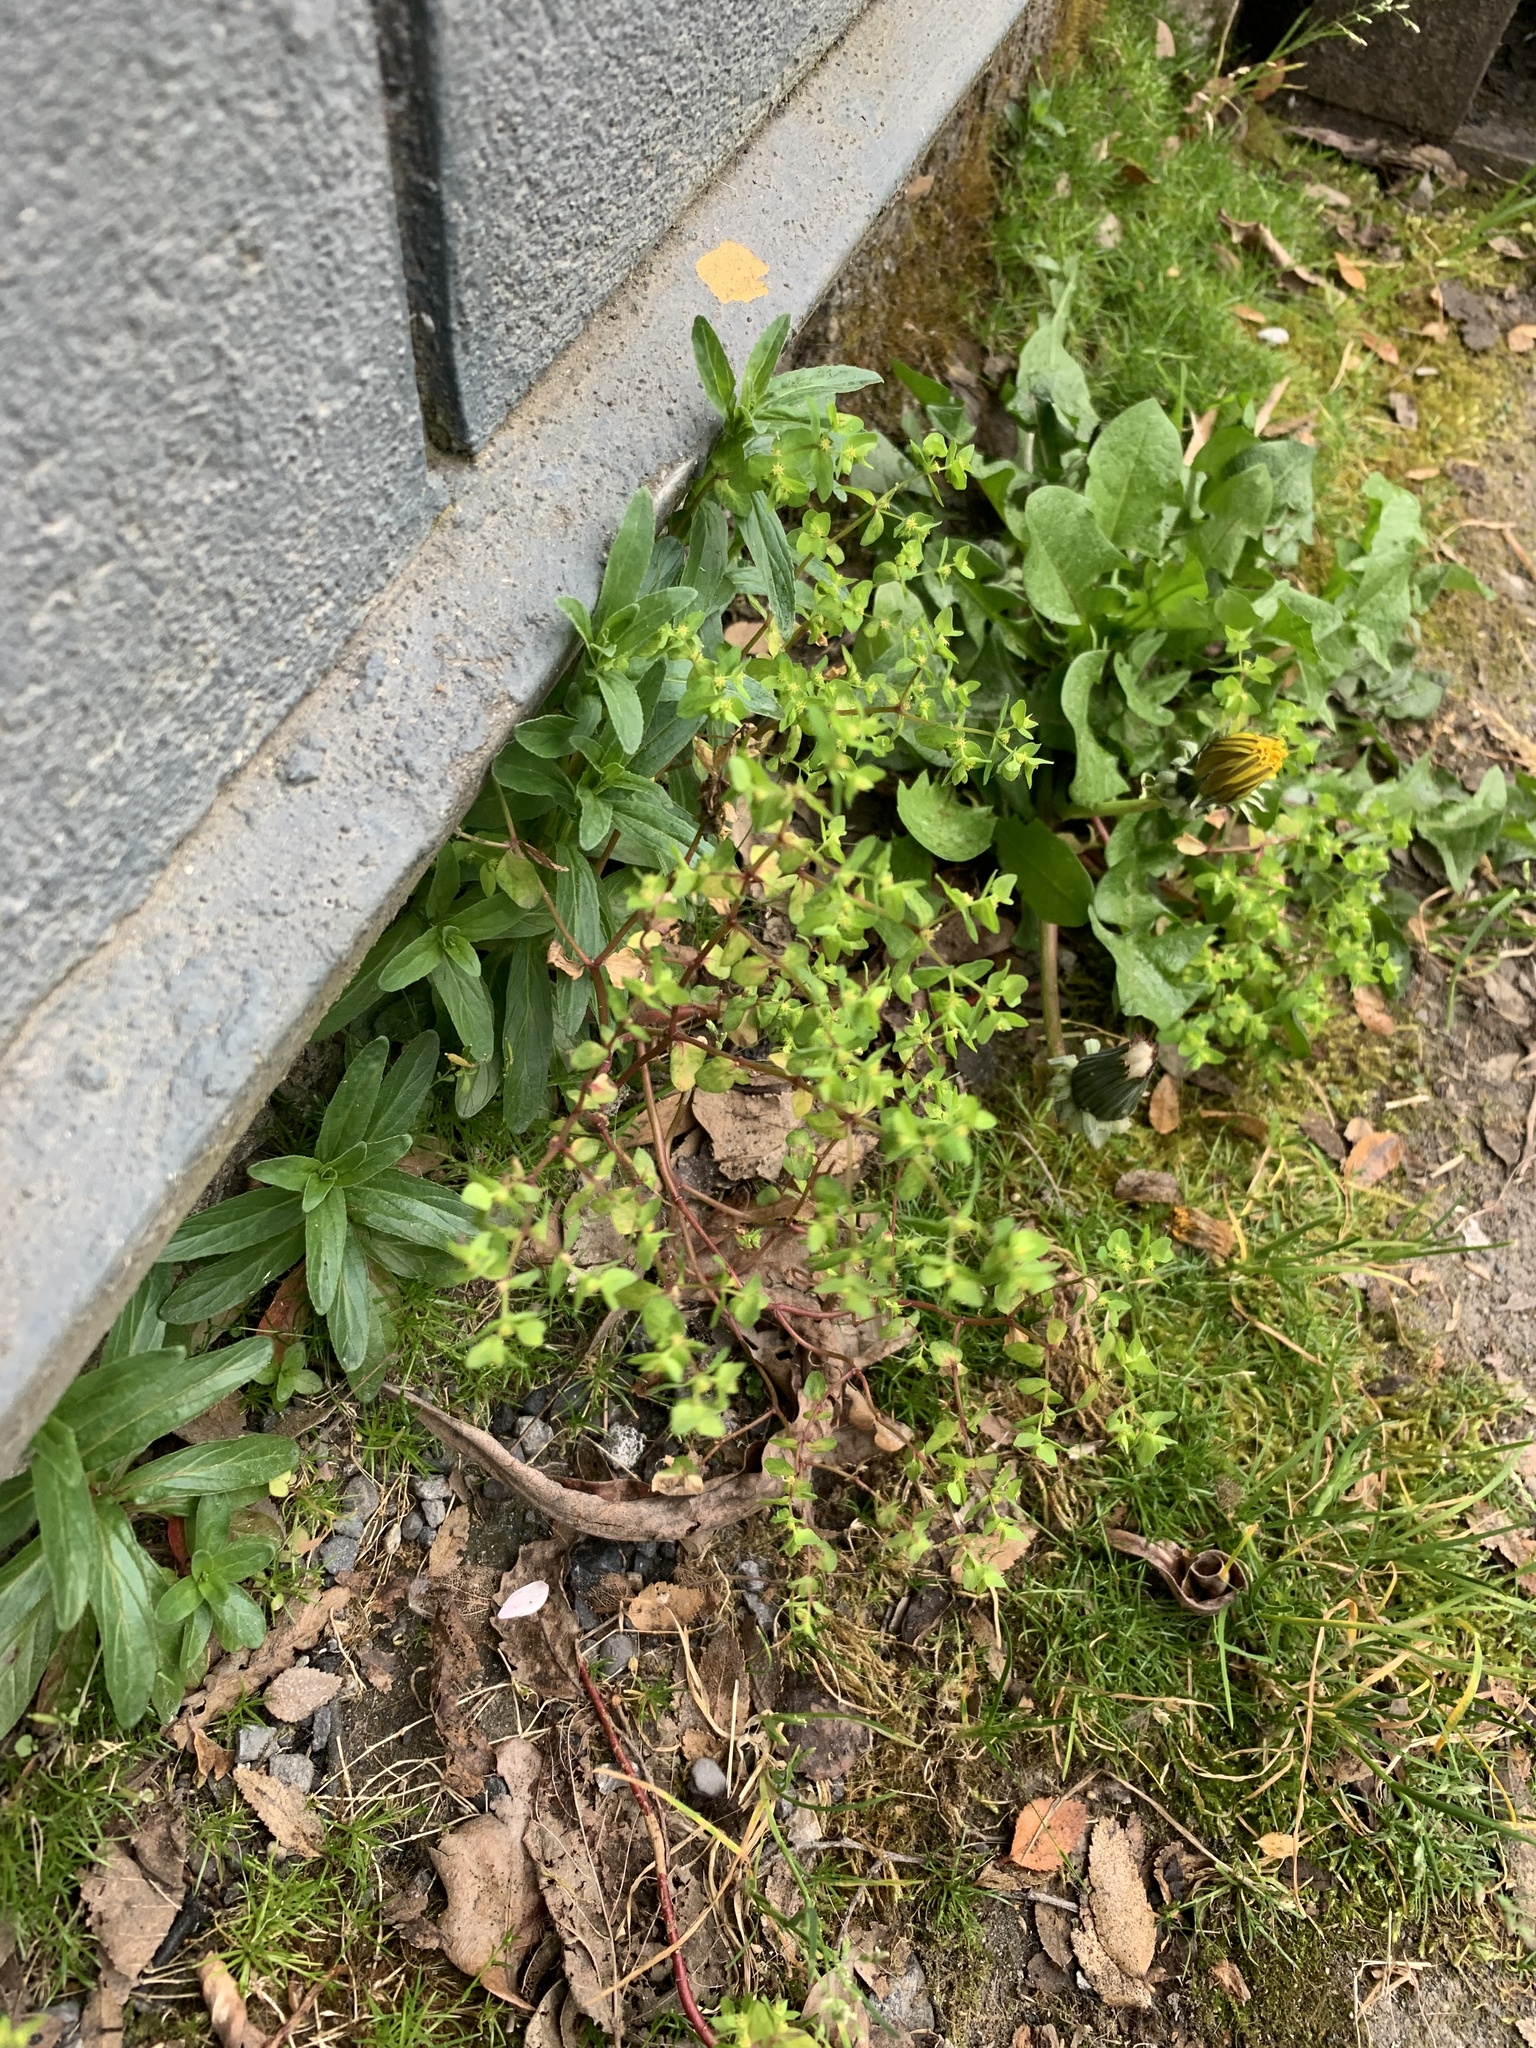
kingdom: Plantae
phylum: Tracheophyta
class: Magnoliopsida
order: Malpighiales
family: Euphorbiaceae
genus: Euphorbia
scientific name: Euphorbia peplus
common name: Petty spurge
